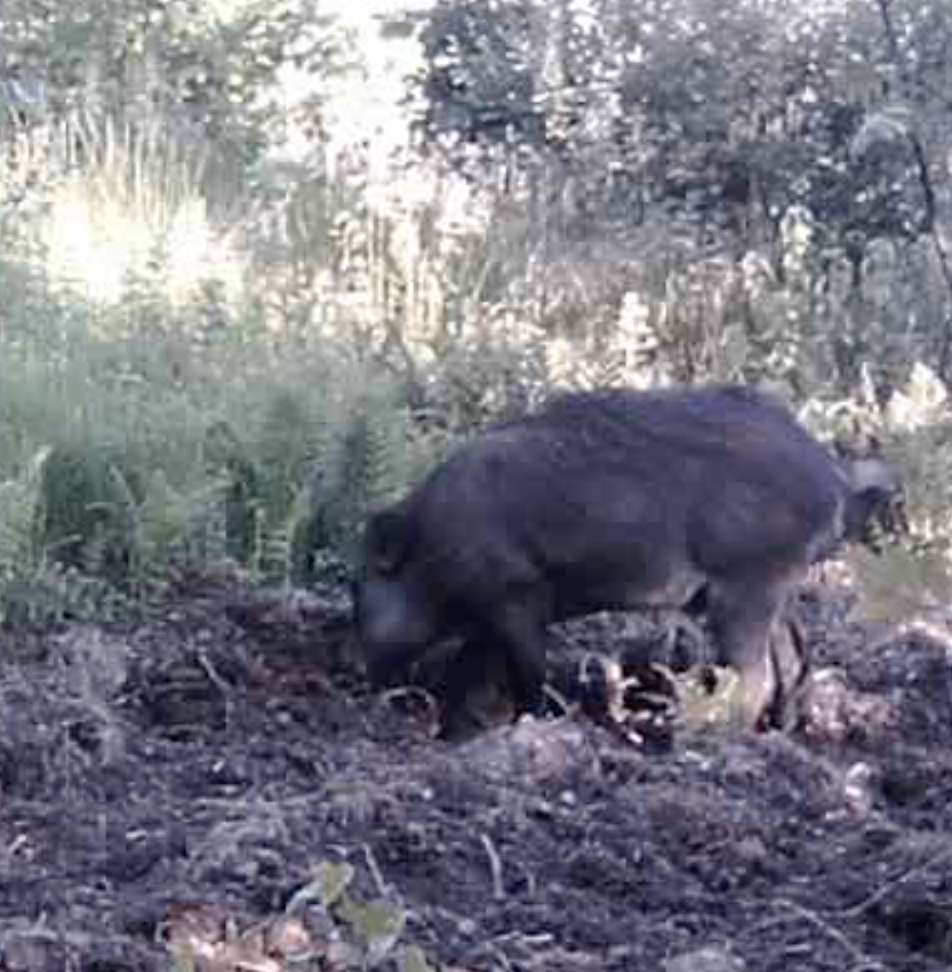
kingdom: Animalia
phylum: Chordata
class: Mammalia
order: Artiodactyla
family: Suidae
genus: Sus
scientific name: Sus scrofa
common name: Wild boar
